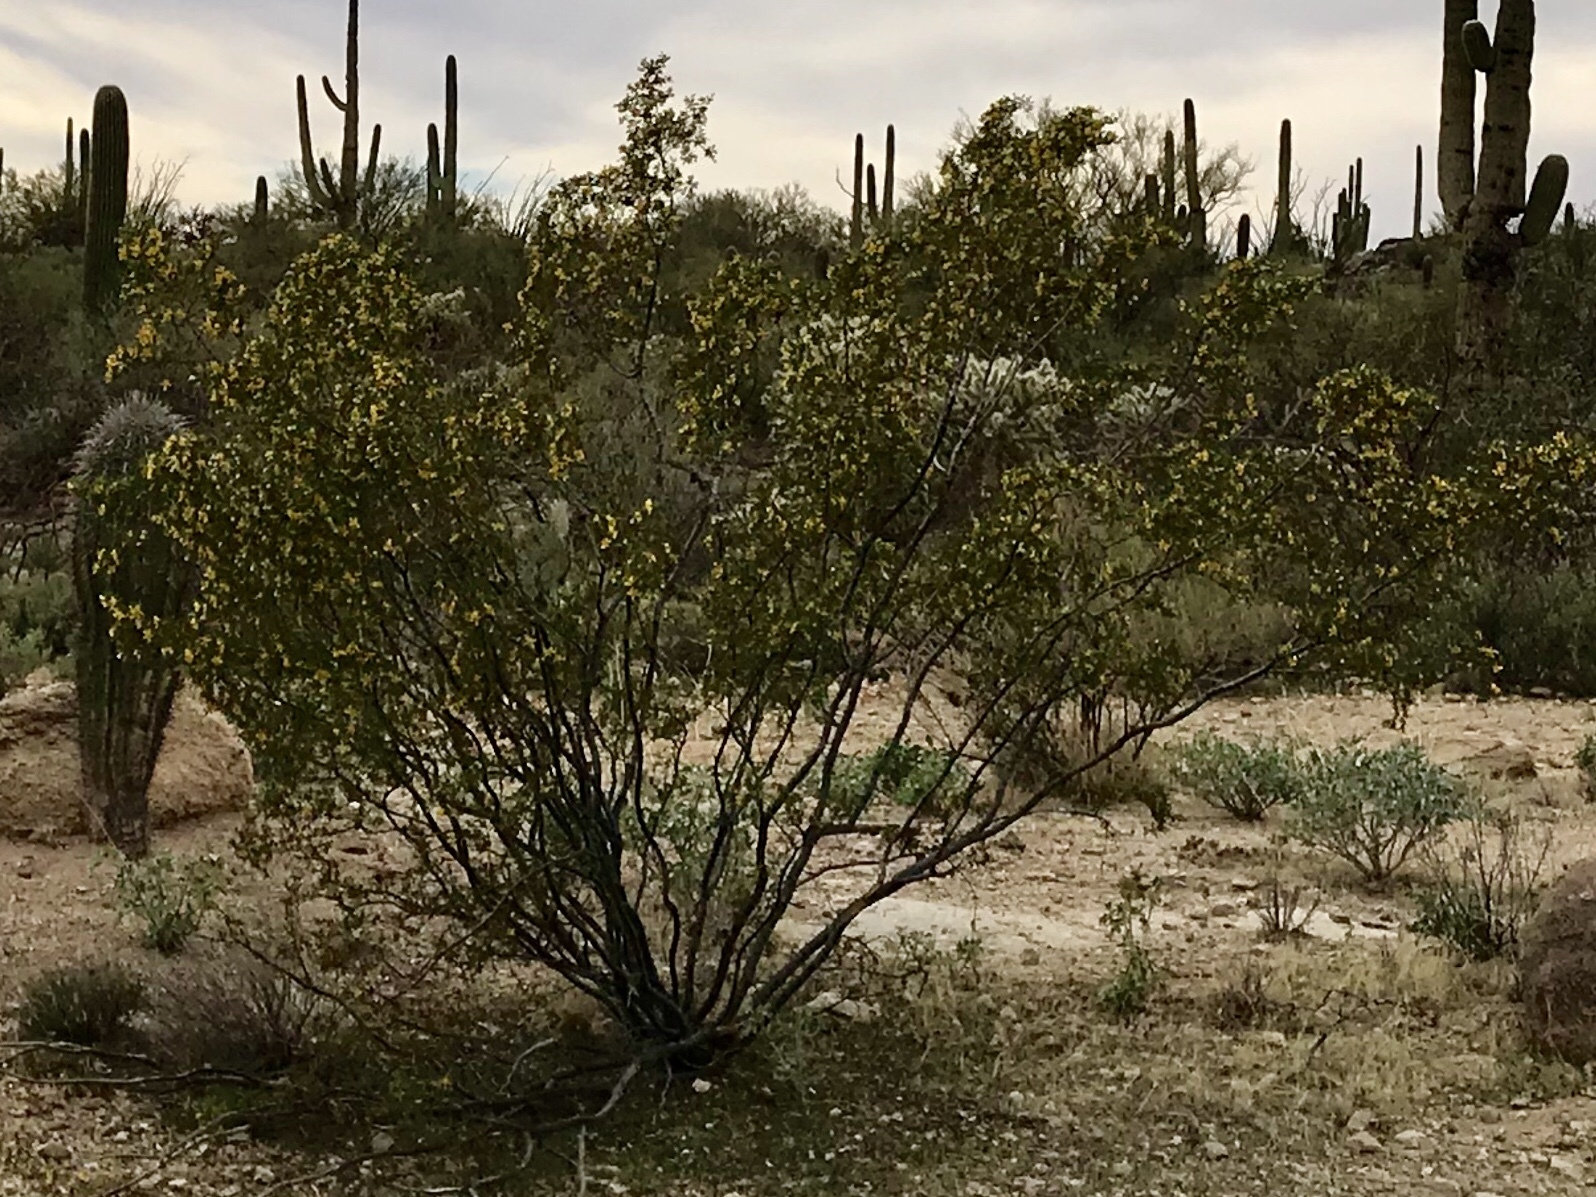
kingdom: Plantae
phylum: Tracheophyta
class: Magnoliopsida
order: Zygophyllales
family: Zygophyllaceae
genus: Larrea
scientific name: Larrea tridentata
